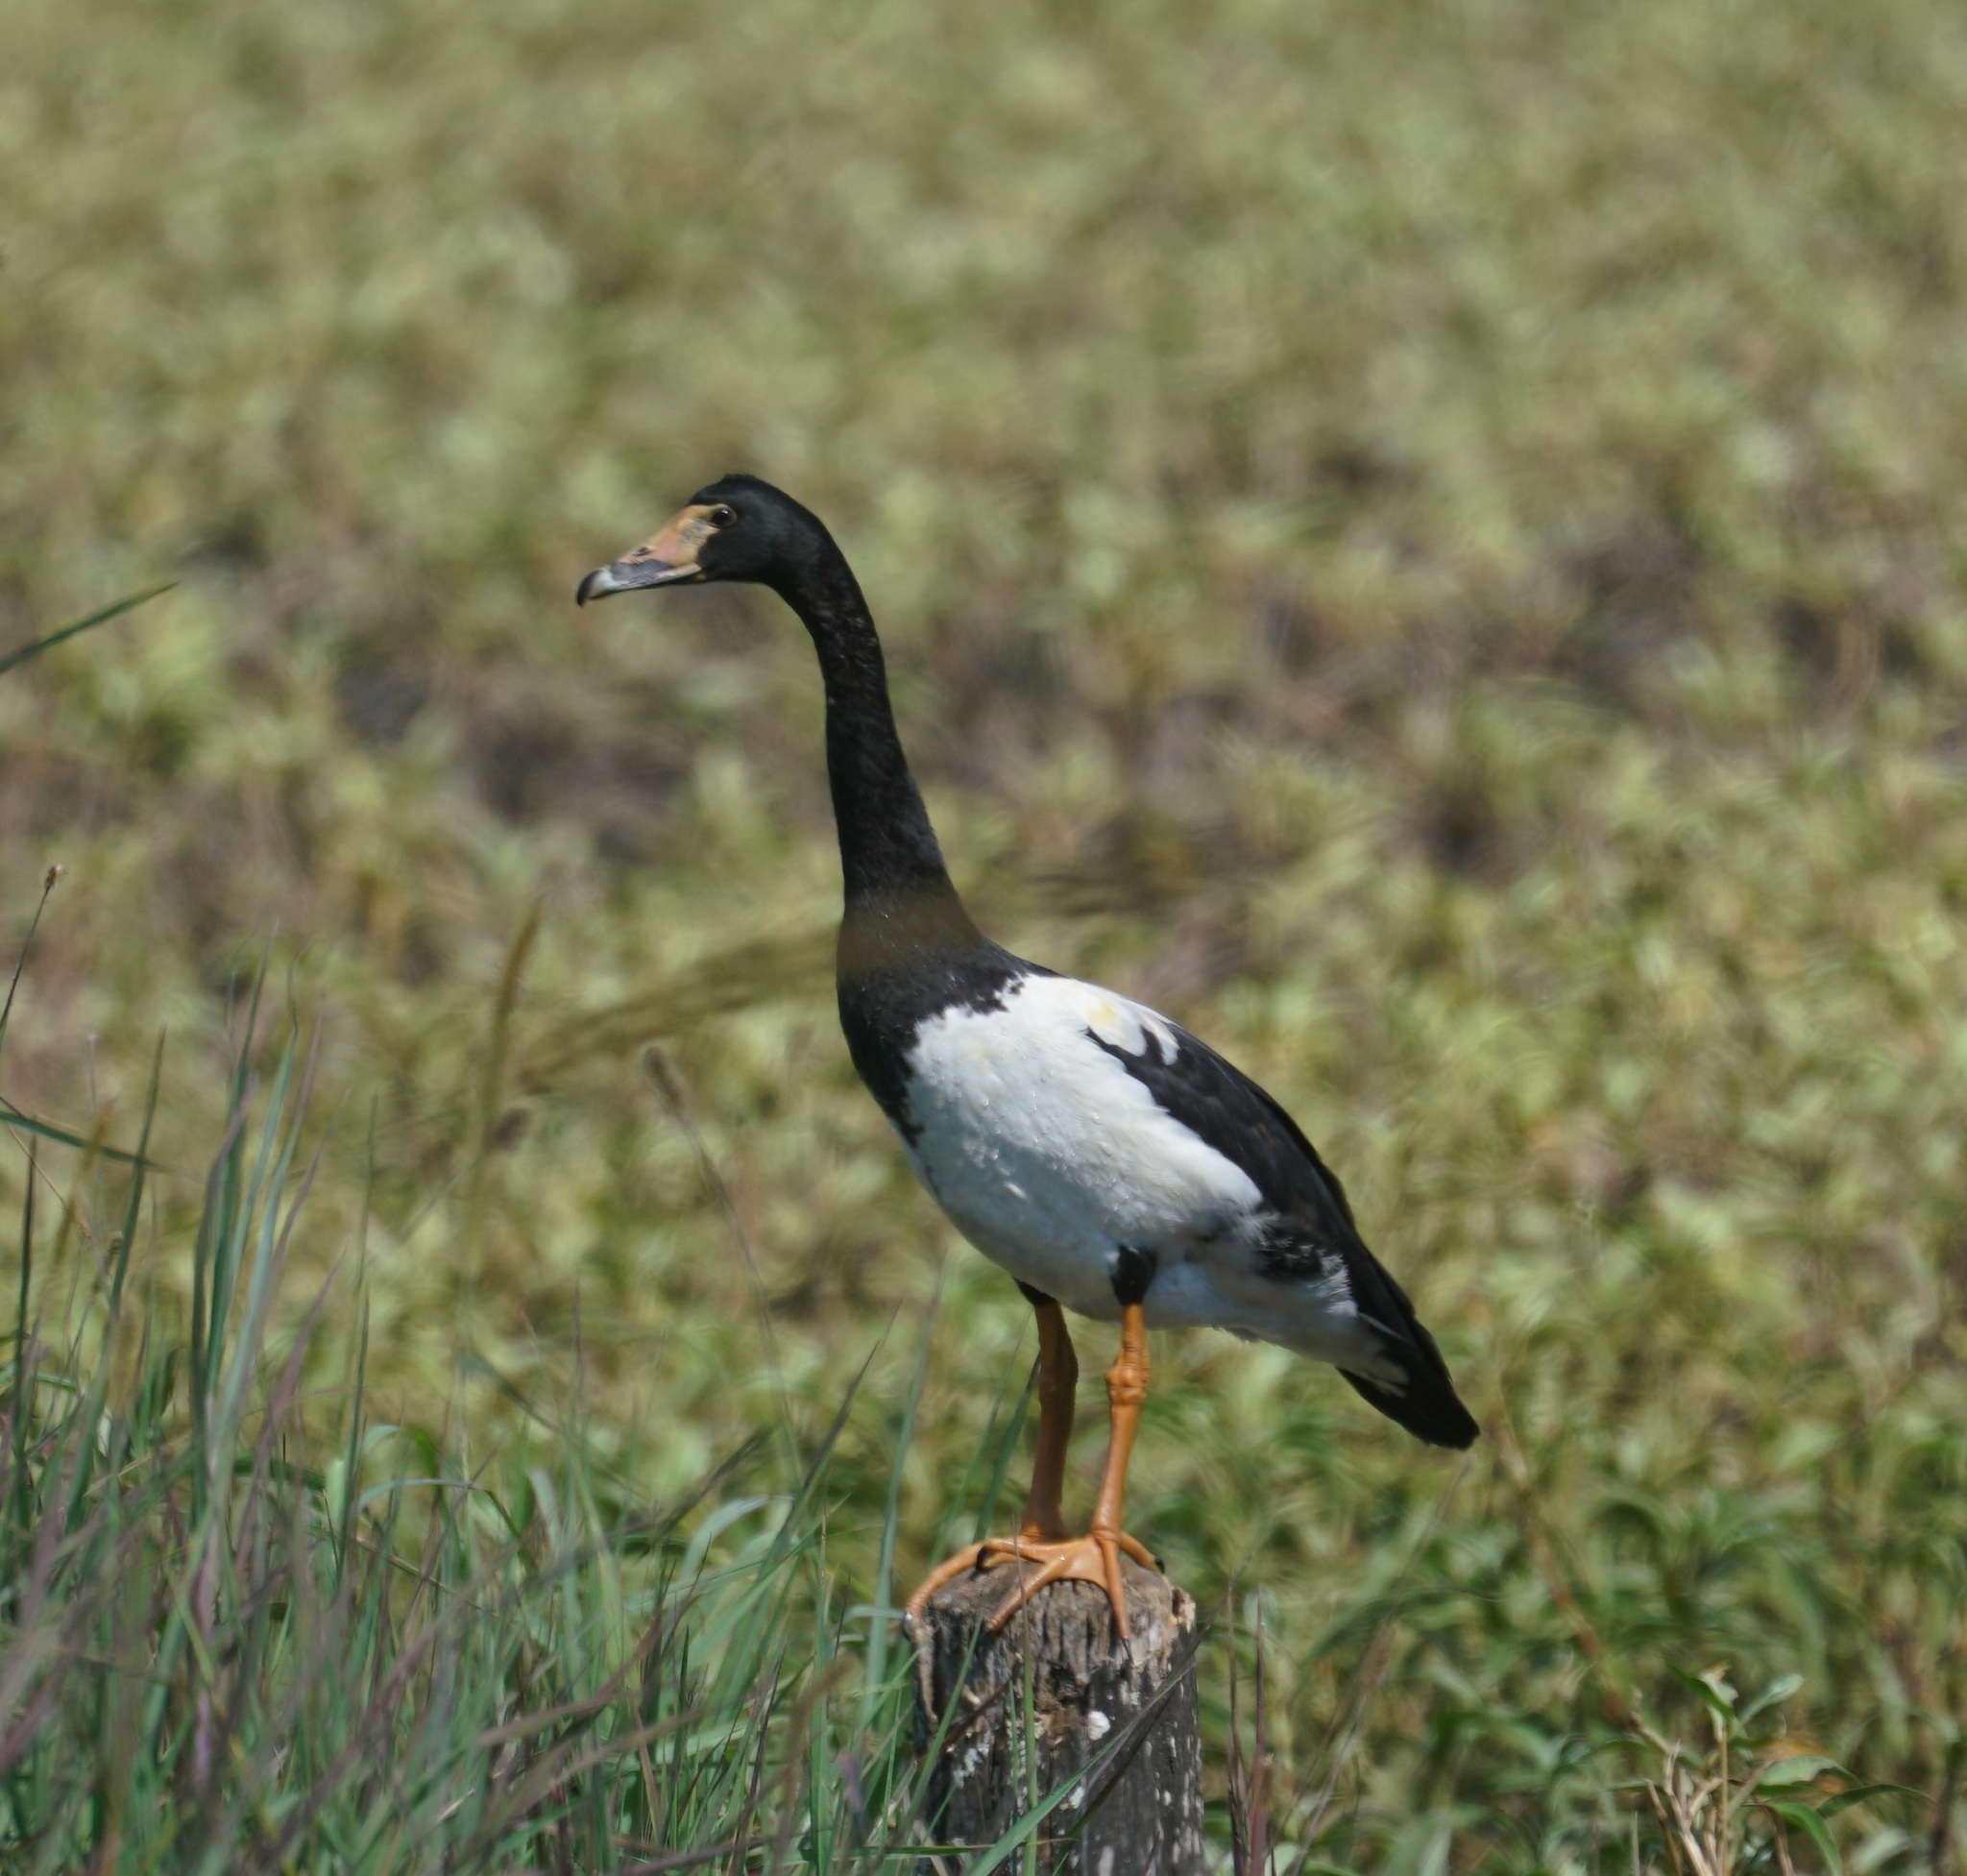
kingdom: Animalia
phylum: Chordata
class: Aves
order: Anseriformes
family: Anseranatidae
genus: Anseranas
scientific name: Anseranas semipalmata
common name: Magpie goose
